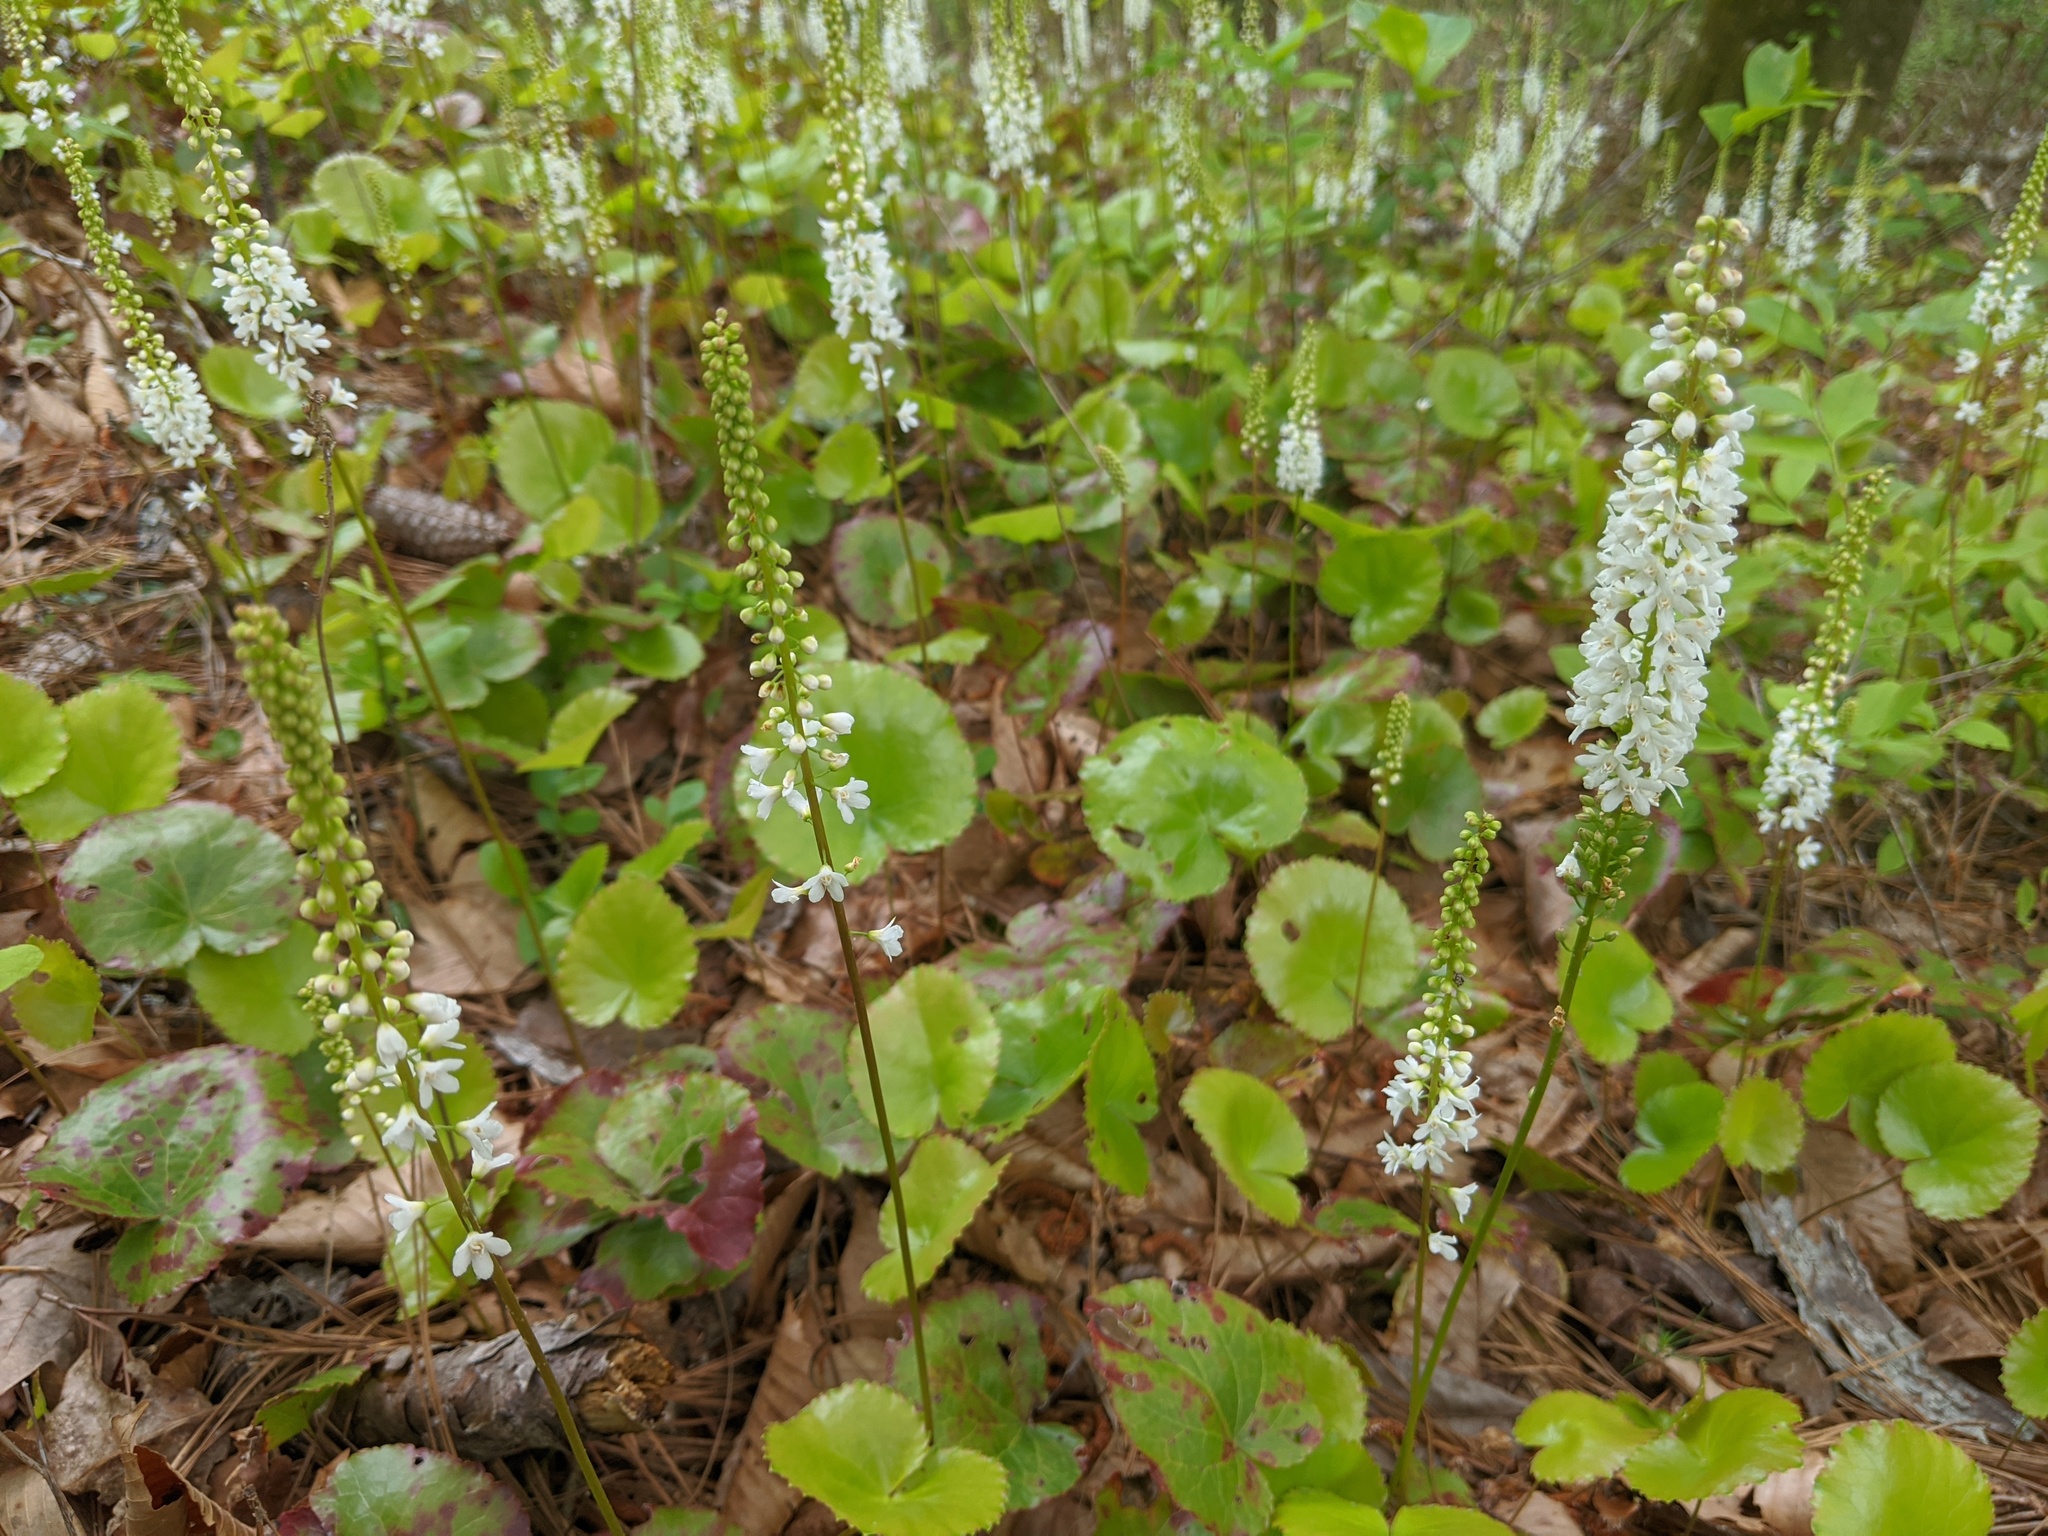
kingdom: Plantae
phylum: Tracheophyta
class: Magnoliopsida
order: Ericales
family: Diapensiaceae
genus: Galax
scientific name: Galax urceolata
